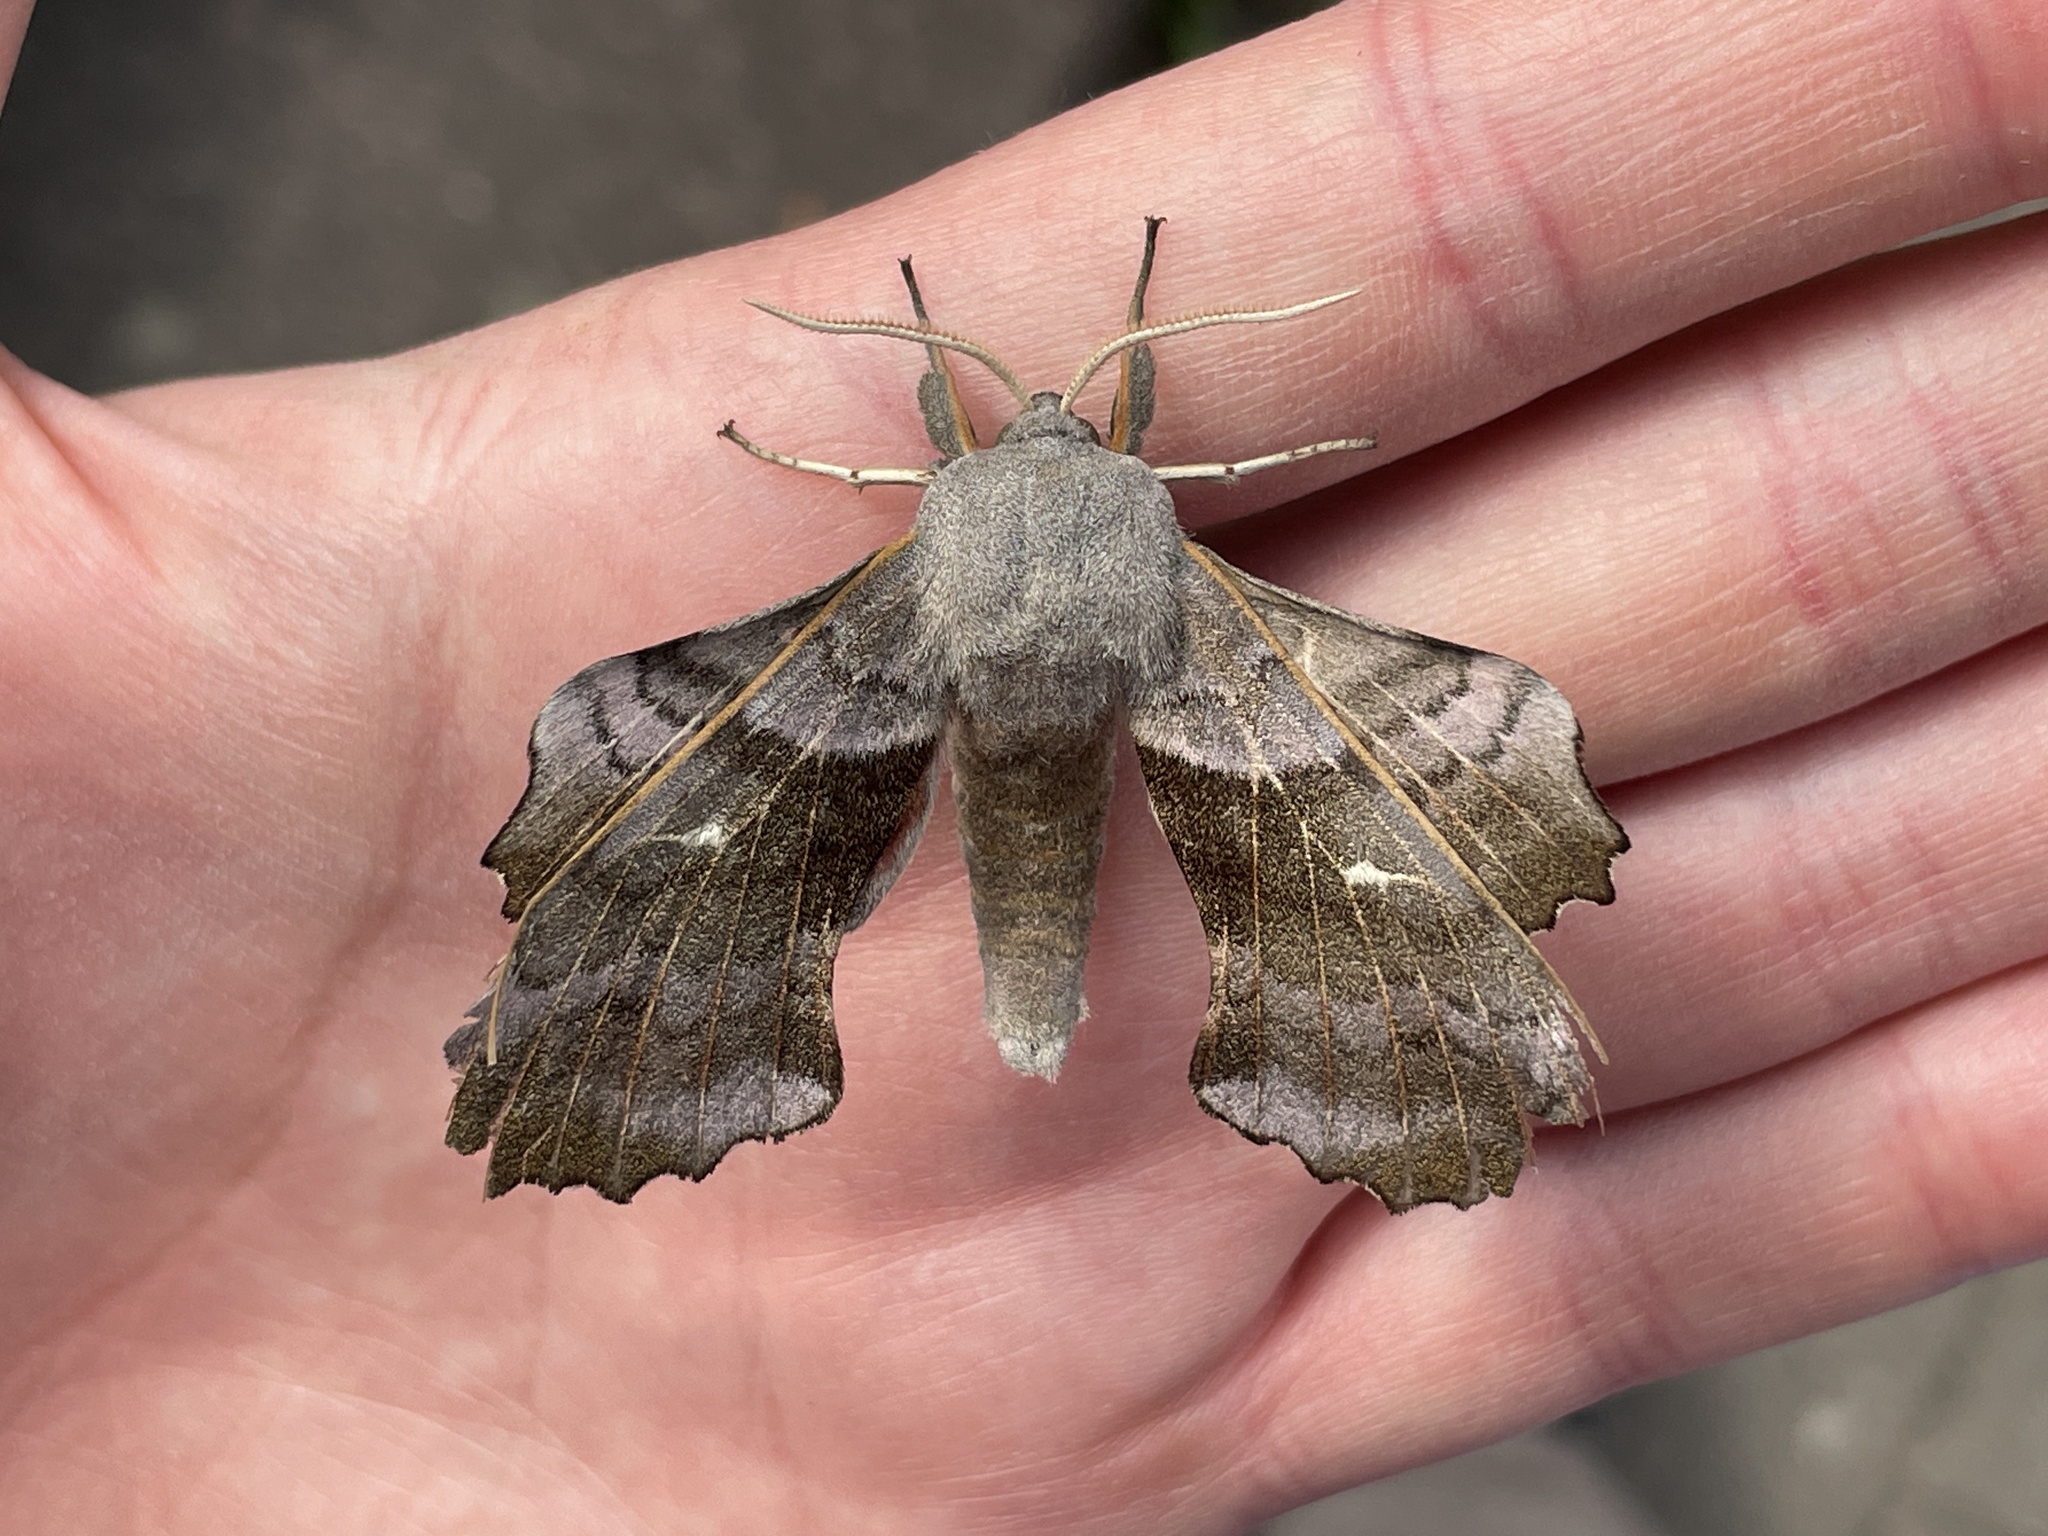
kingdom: Animalia
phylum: Arthropoda
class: Insecta
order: Lepidoptera
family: Sphingidae
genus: Laothoe
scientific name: Laothoe populi
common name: Poplar hawk-moth
